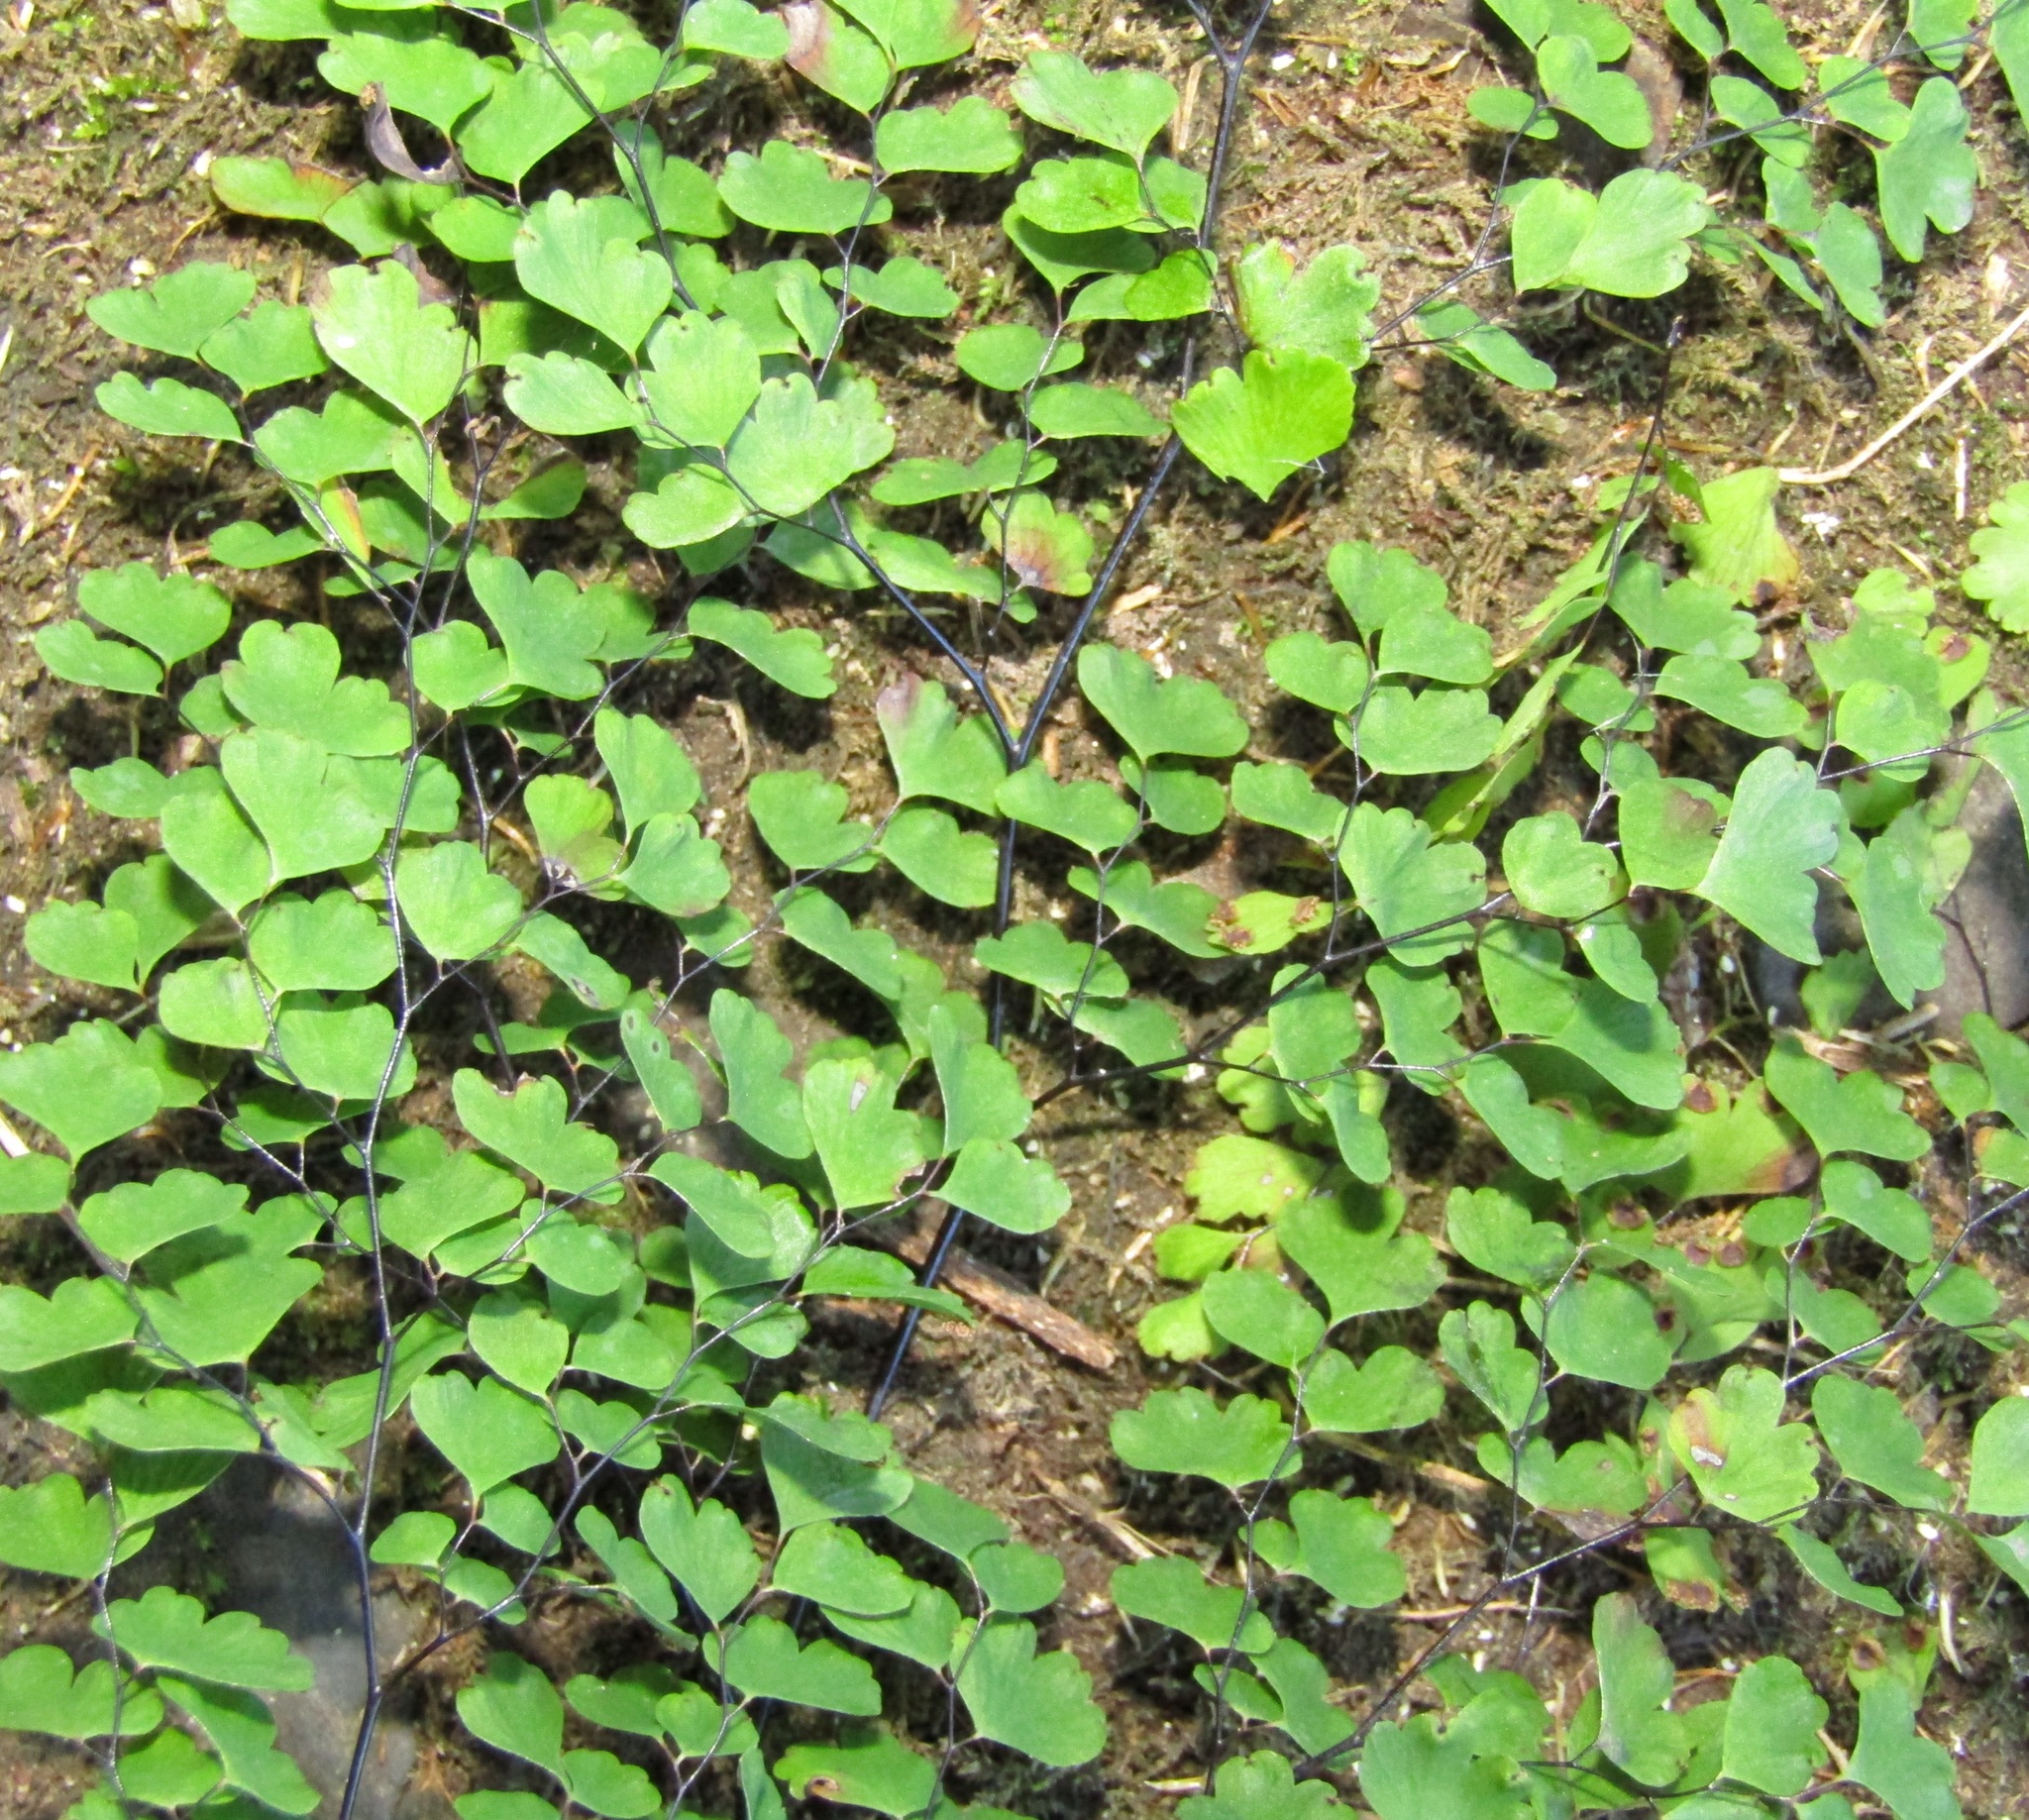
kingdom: Plantae
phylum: Tracheophyta
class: Polypodiopsida
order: Polypodiales
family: Pteridaceae
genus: Adiantum
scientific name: Adiantum raddianum
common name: Delta maidenhair fern
